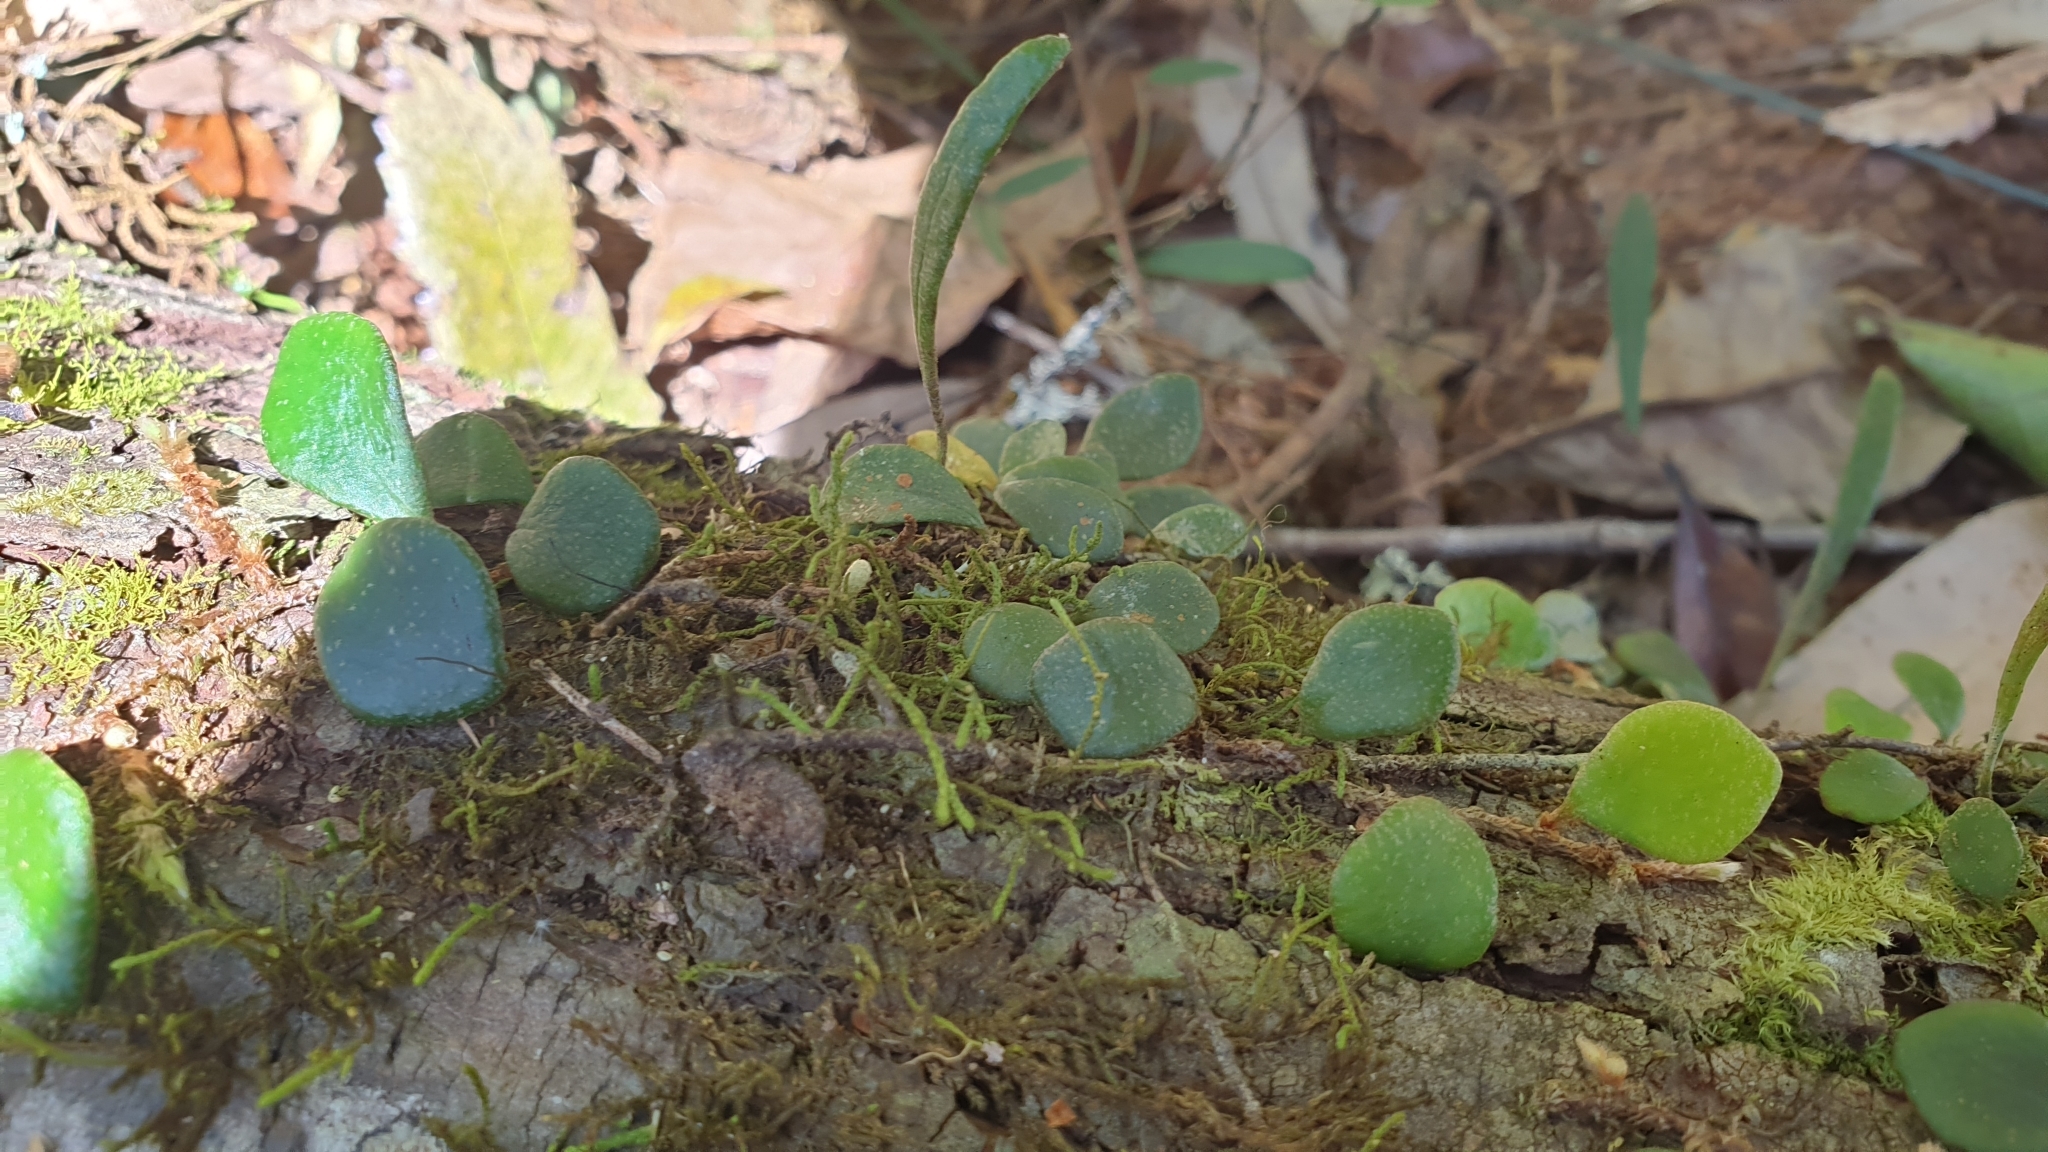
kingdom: Plantae
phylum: Tracheophyta
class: Polypodiopsida
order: Polypodiales
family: Polypodiaceae
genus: Pyrrosia
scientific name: Pyrrosia rupestris
